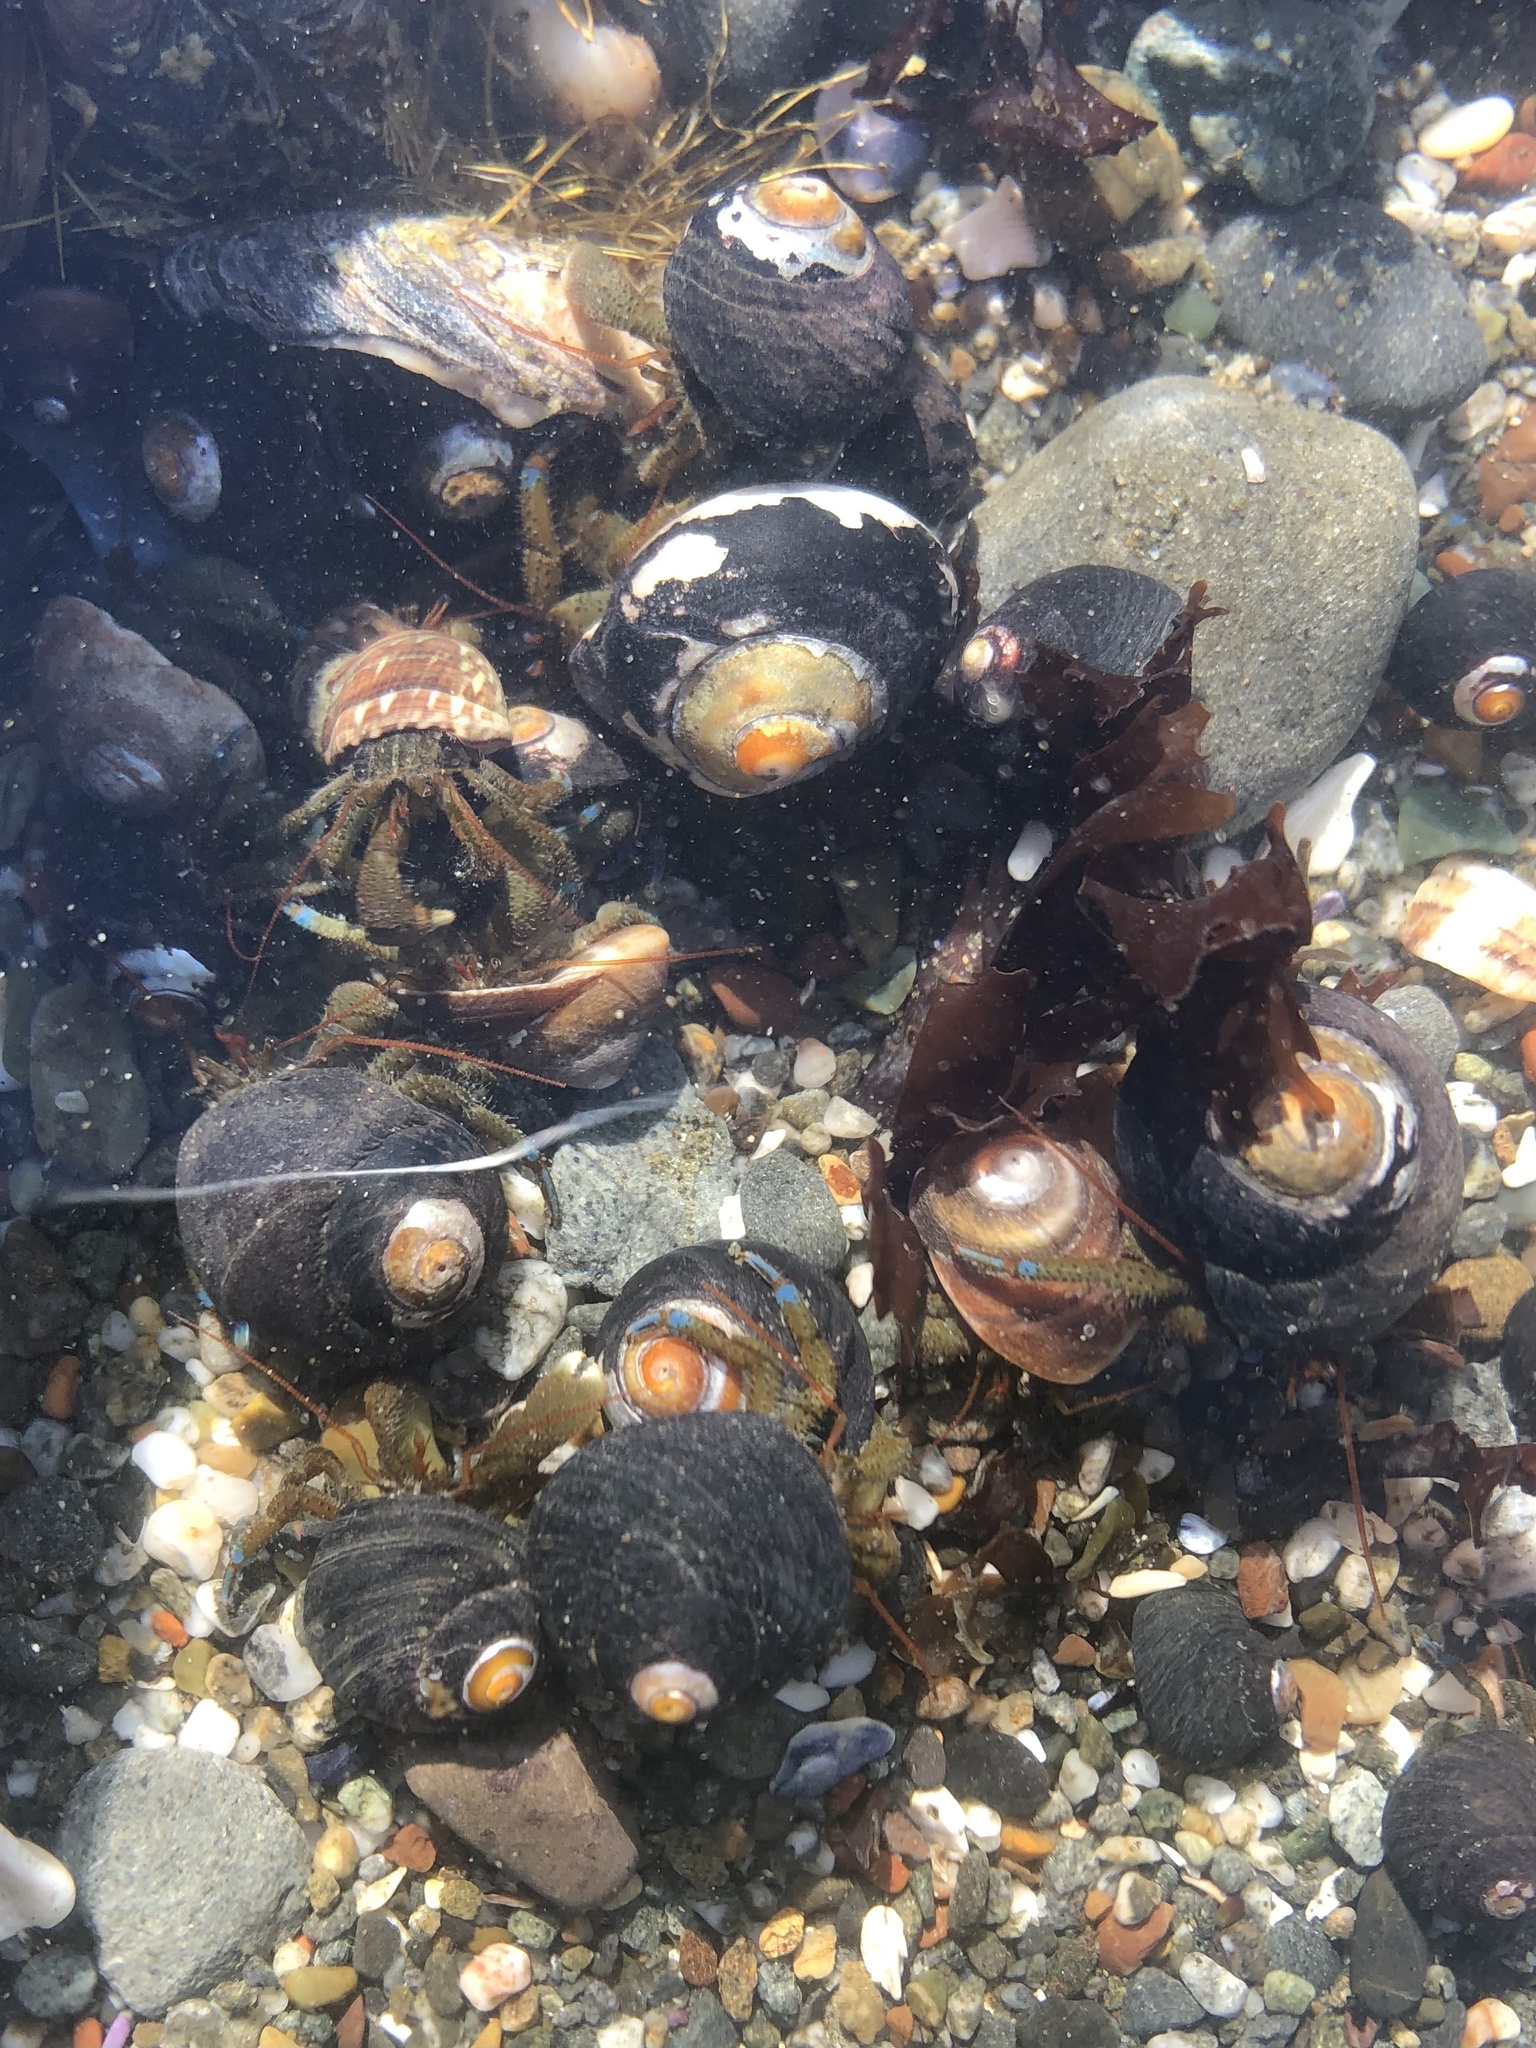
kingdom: Animalia
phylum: Arthropoda
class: Malacostraca
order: Decapoda
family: Paguridae
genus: Pagurus
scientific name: Pagurus samuelis
